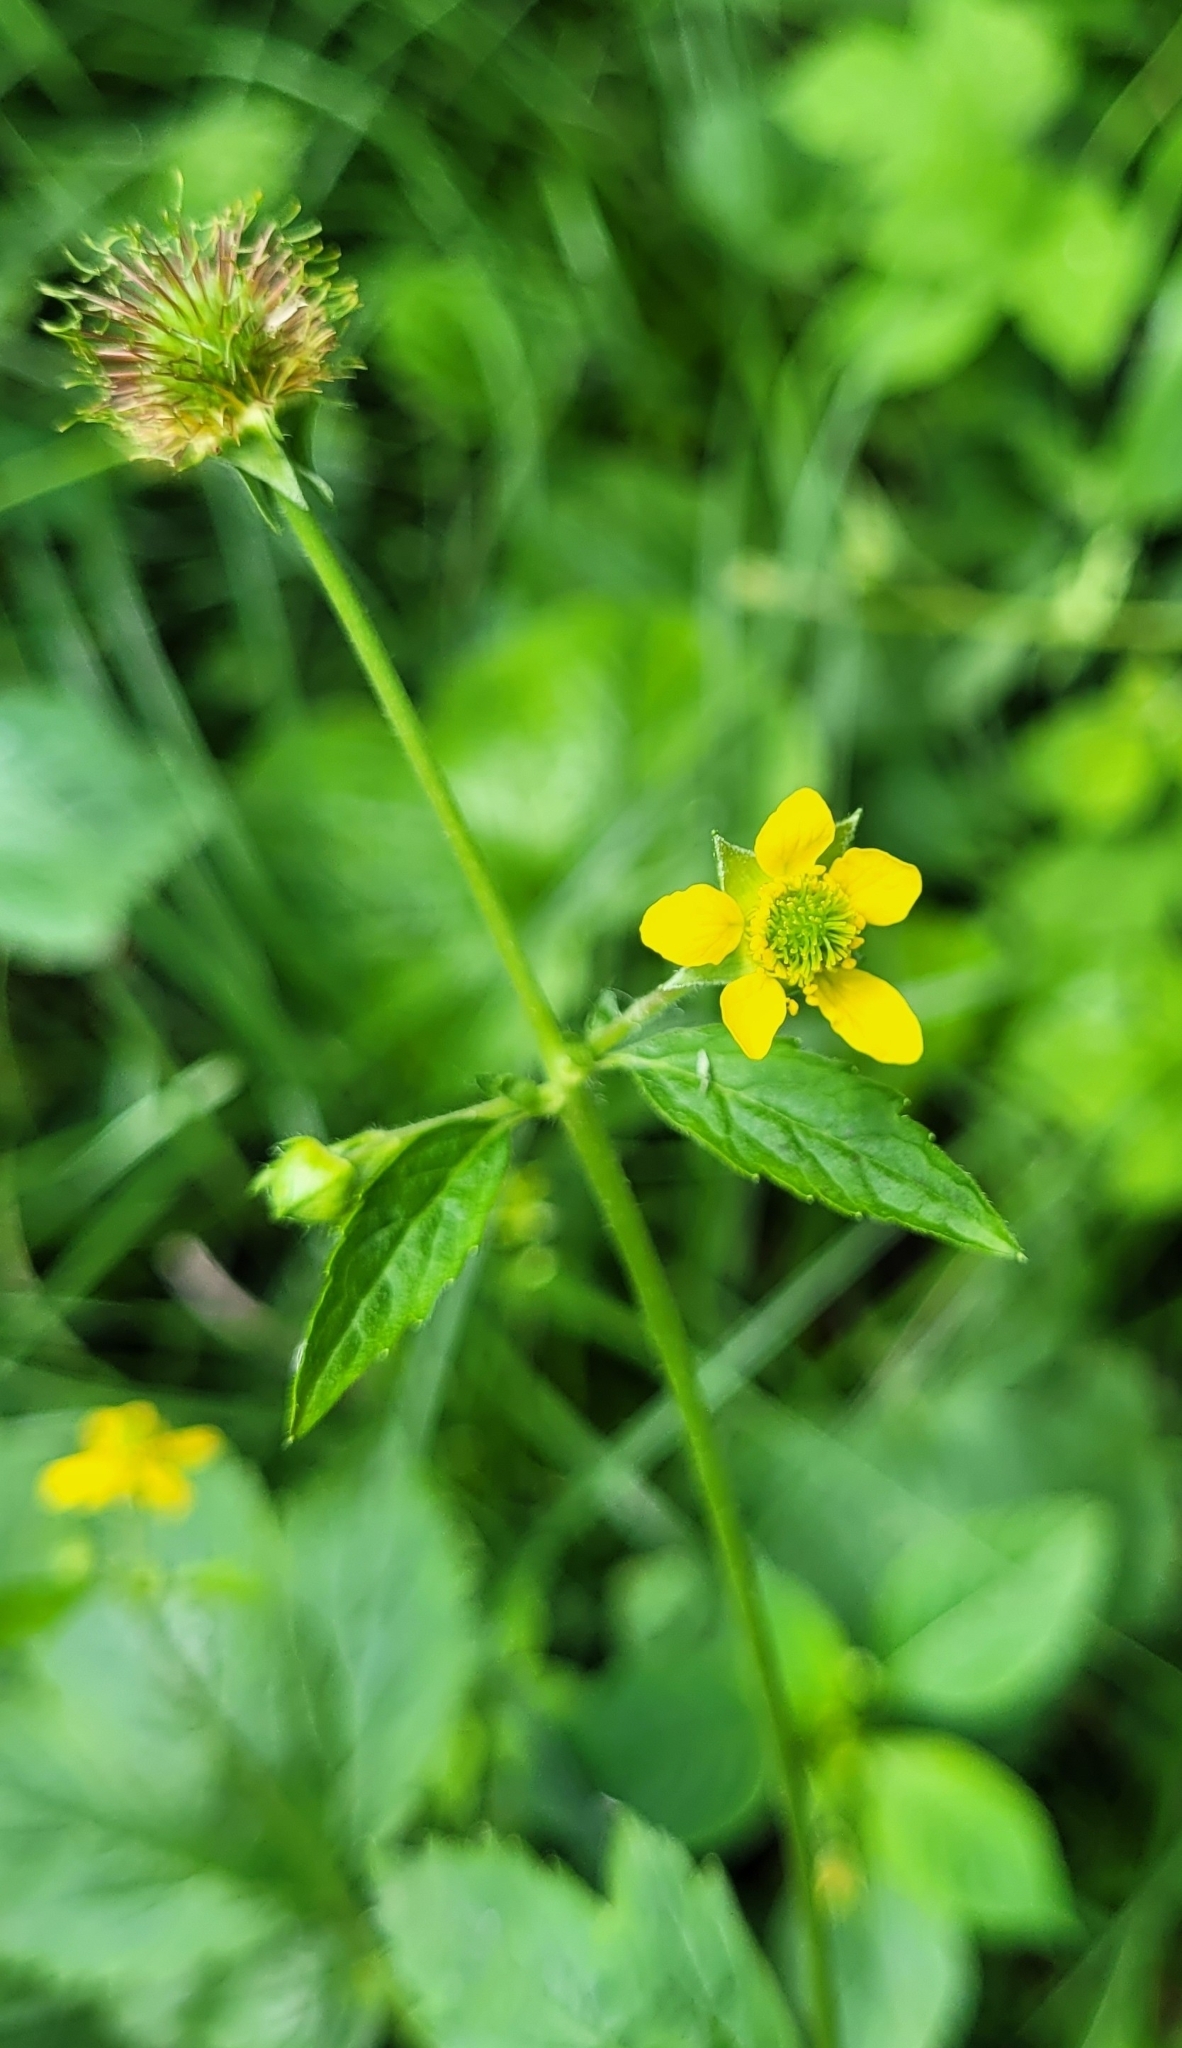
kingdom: Plantae
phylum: Tracheophyta
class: Magnoliopsida
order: Rosales
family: Rosaceae
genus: Geum
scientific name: Geum urbanum
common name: Wood avens
